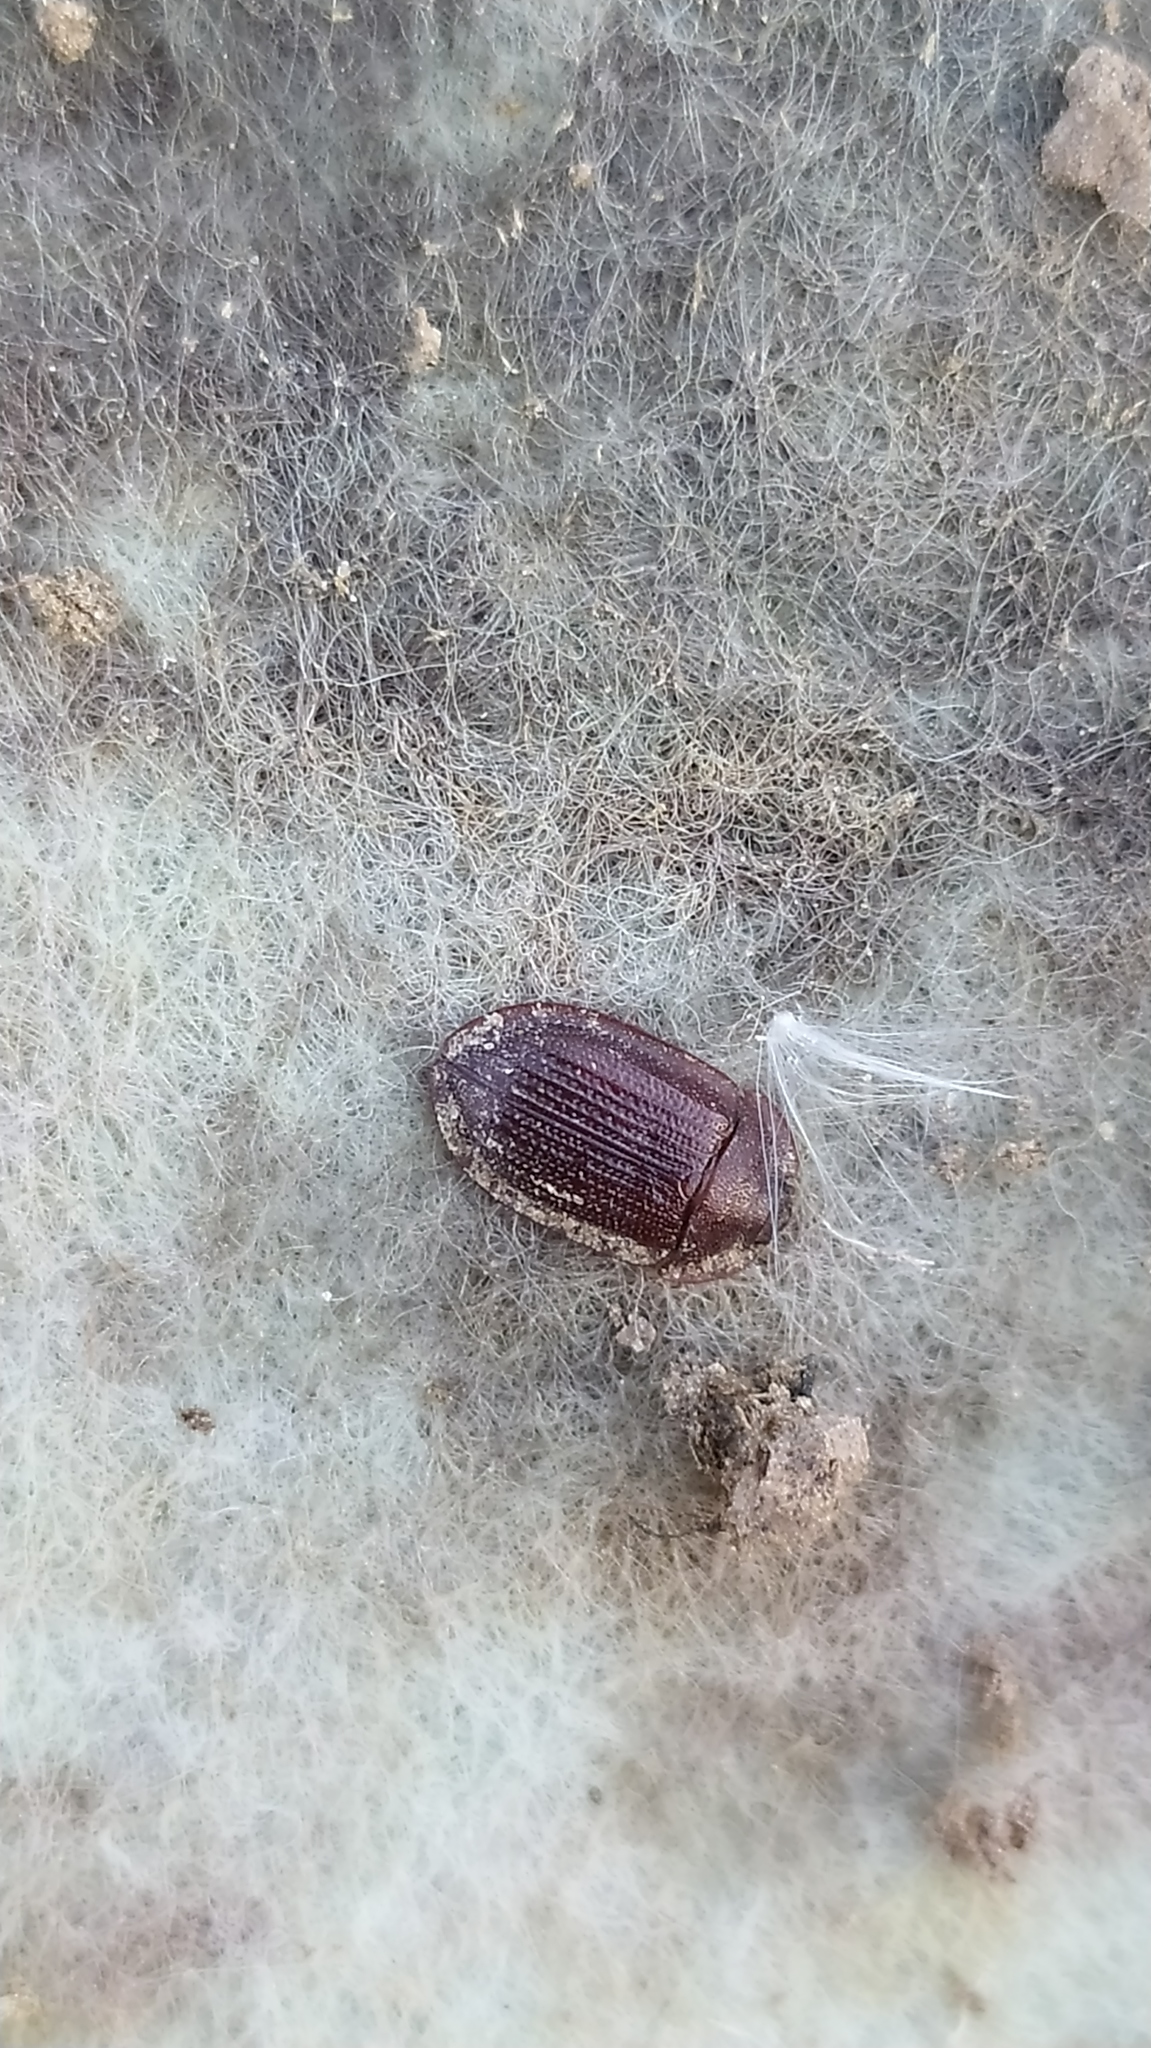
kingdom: Animalia
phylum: Arthropoda
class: Insecta
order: Coleoptera
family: Trogossitidae
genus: Peltis
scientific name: Peltis ferruginea
